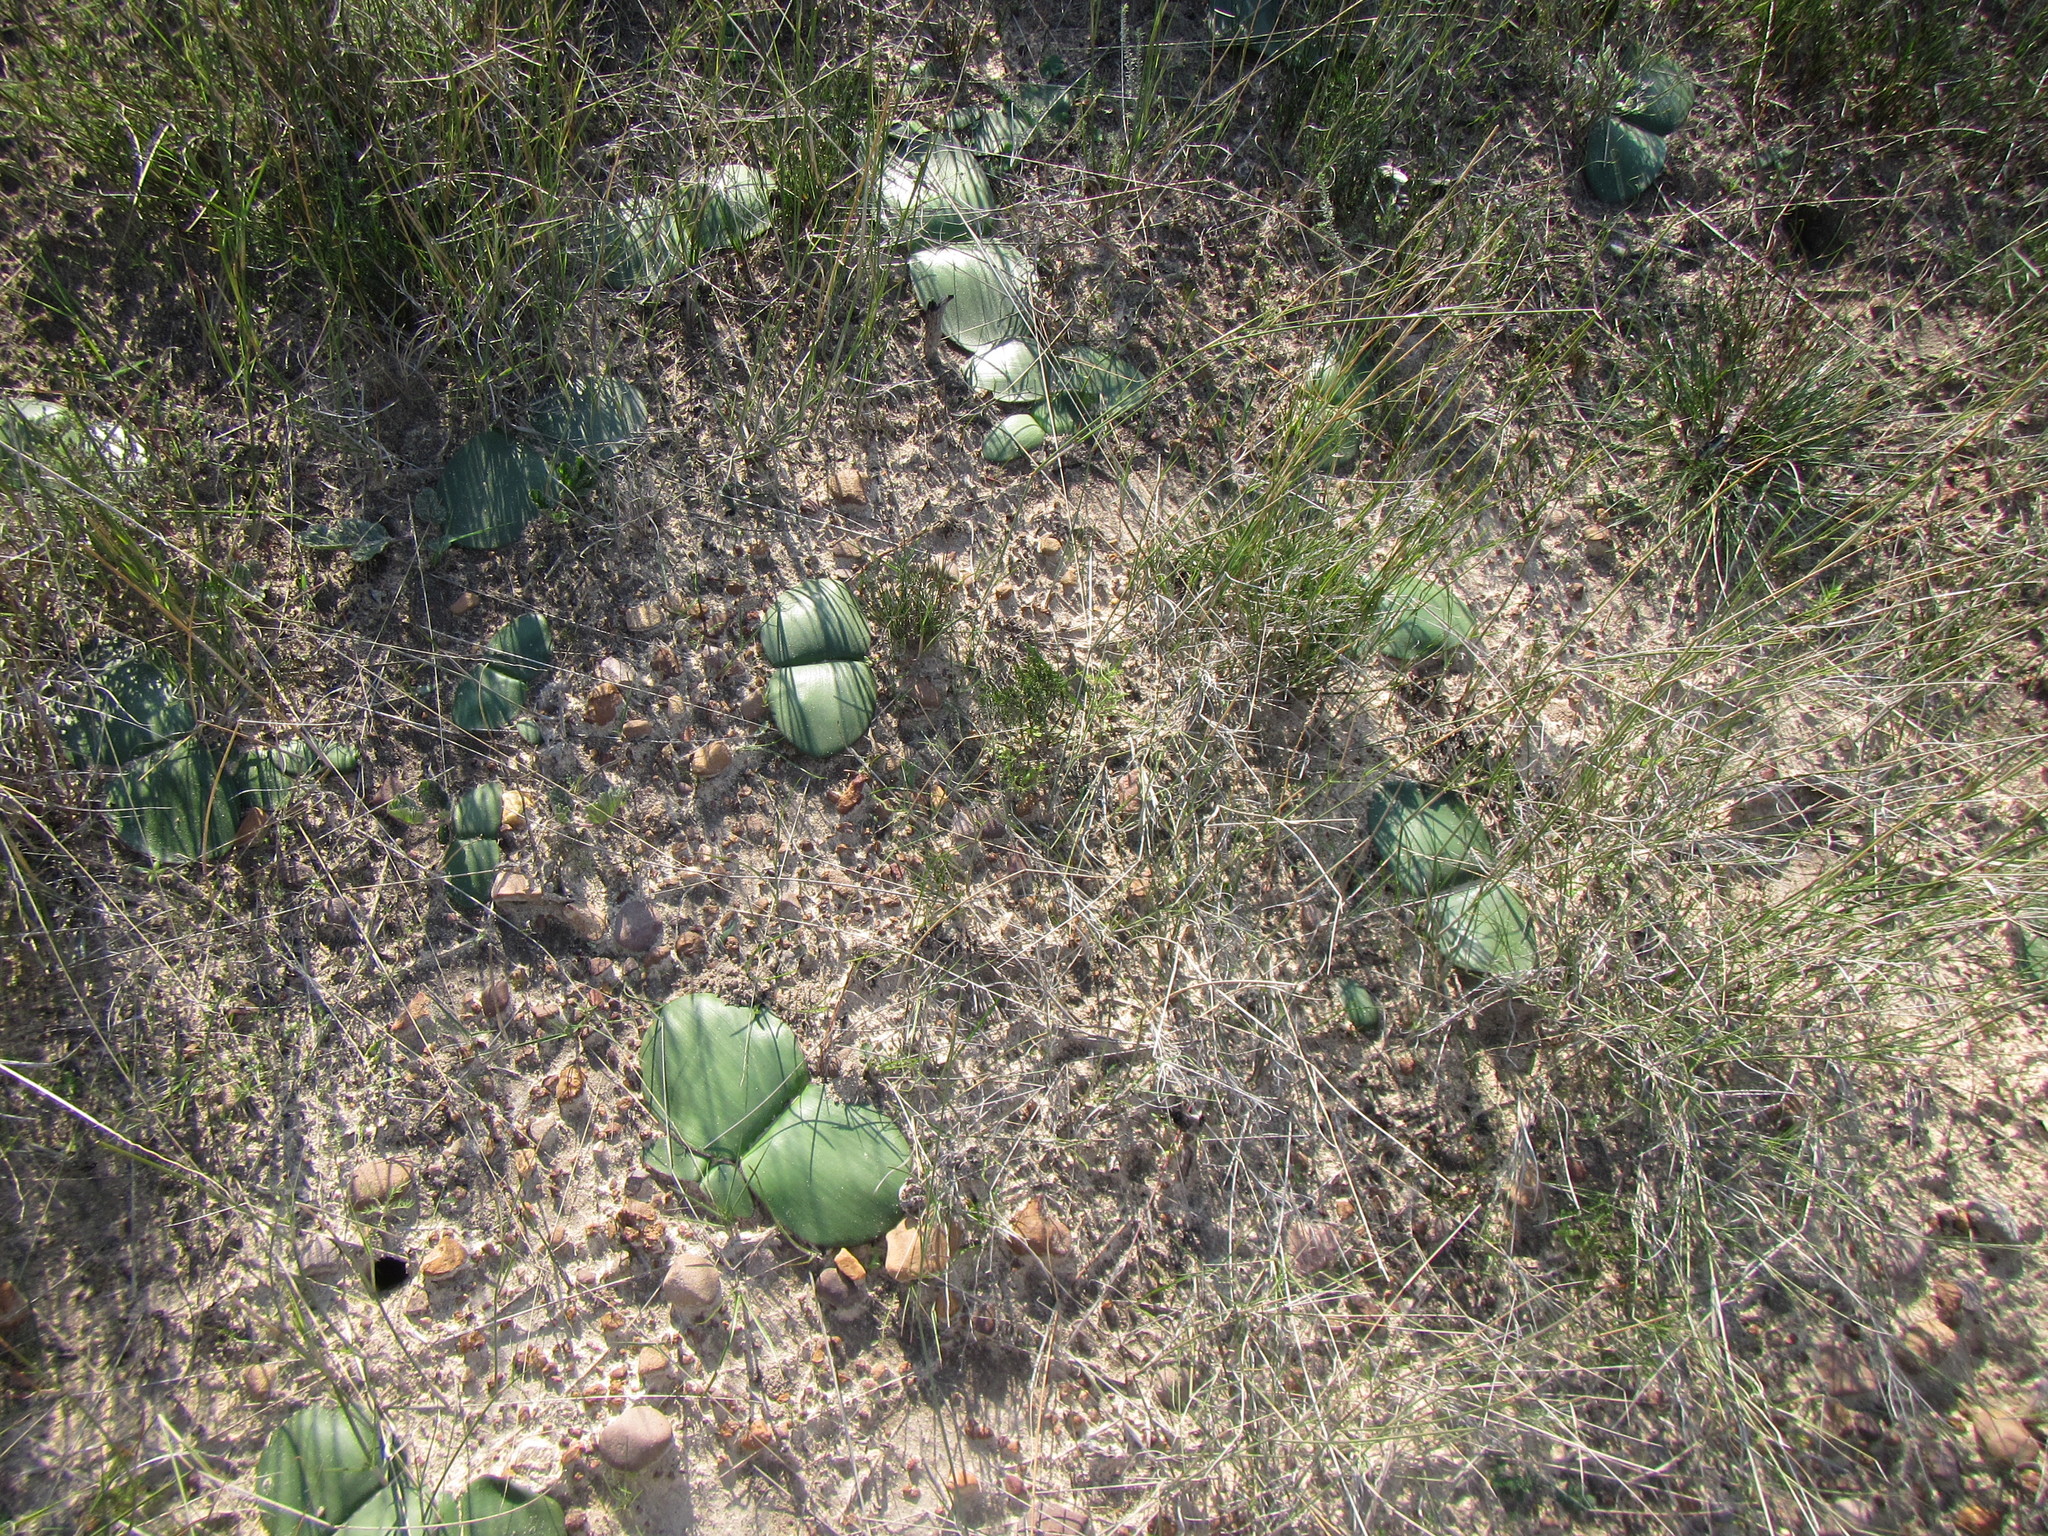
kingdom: Plantae
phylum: Tracheophyta
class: Liliopsida
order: Asparagales
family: Amaryllidaceae
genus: Haemanthus
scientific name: Haemanthus sanguineus
